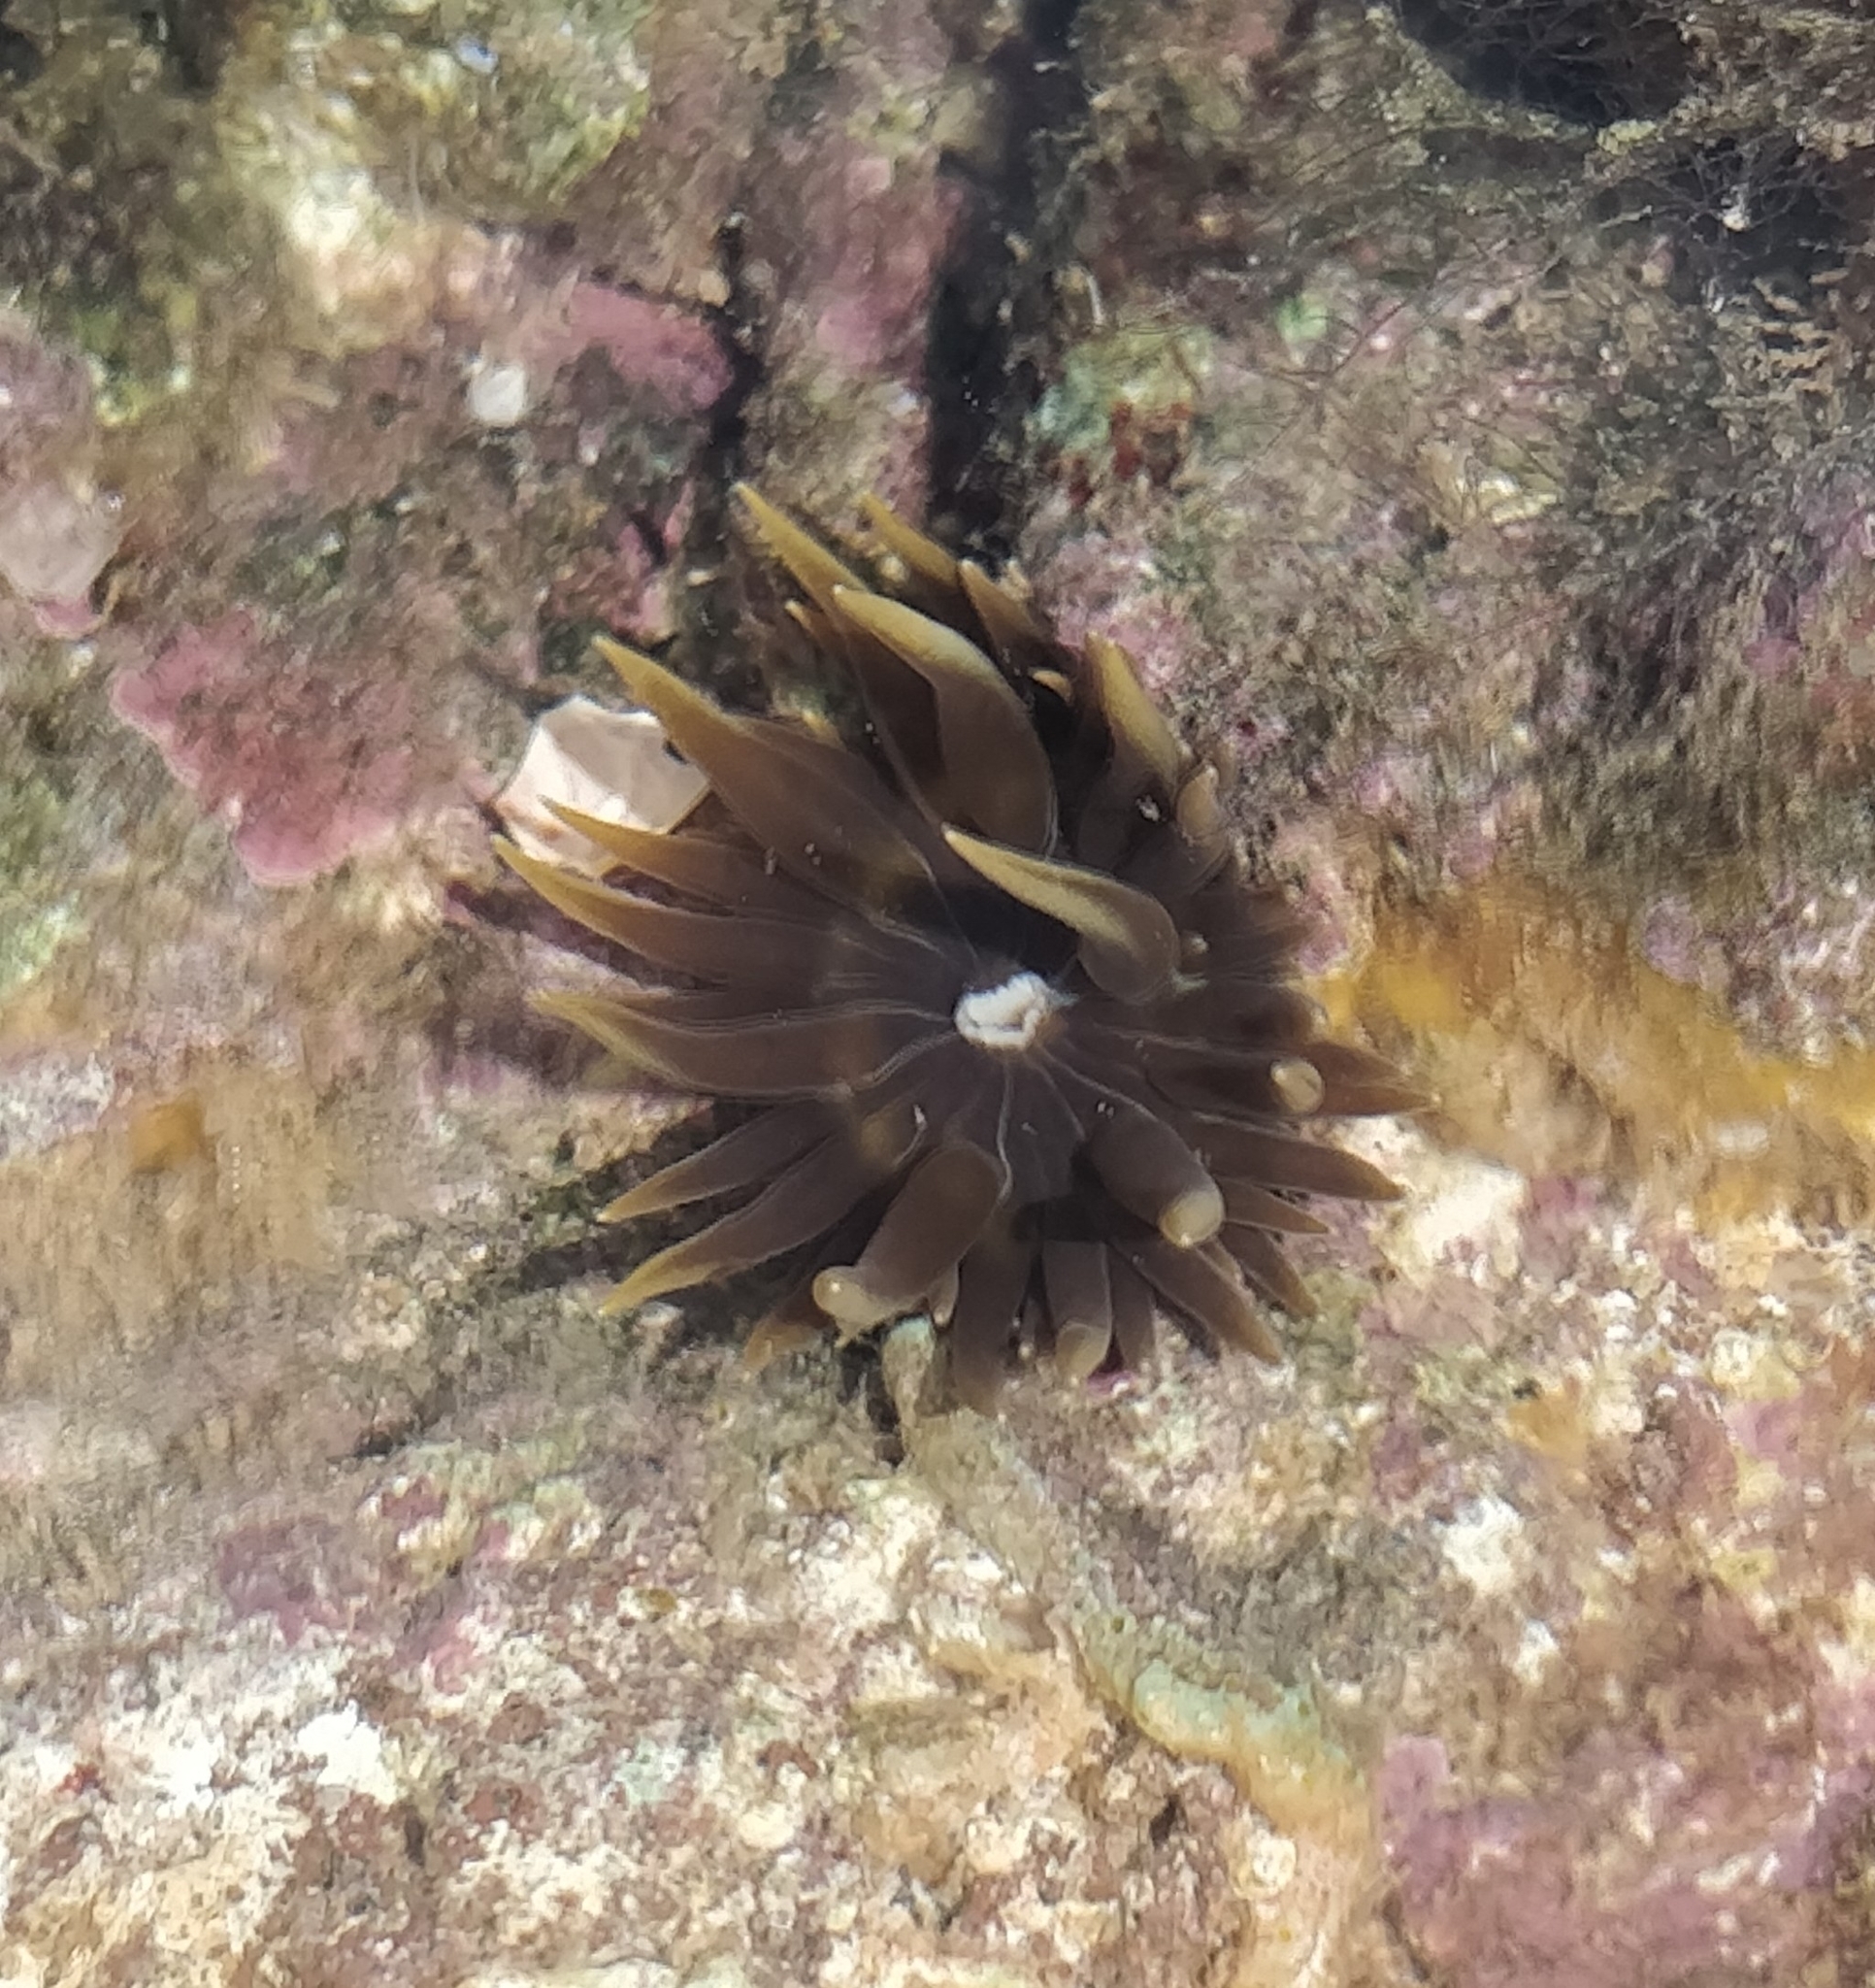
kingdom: Animalia
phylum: Cnidaria
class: Anthozoa
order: Actiniaria
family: Aiptasiidae
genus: Aiptasia
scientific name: Aiptasia couchii
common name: Trumpet anemone
